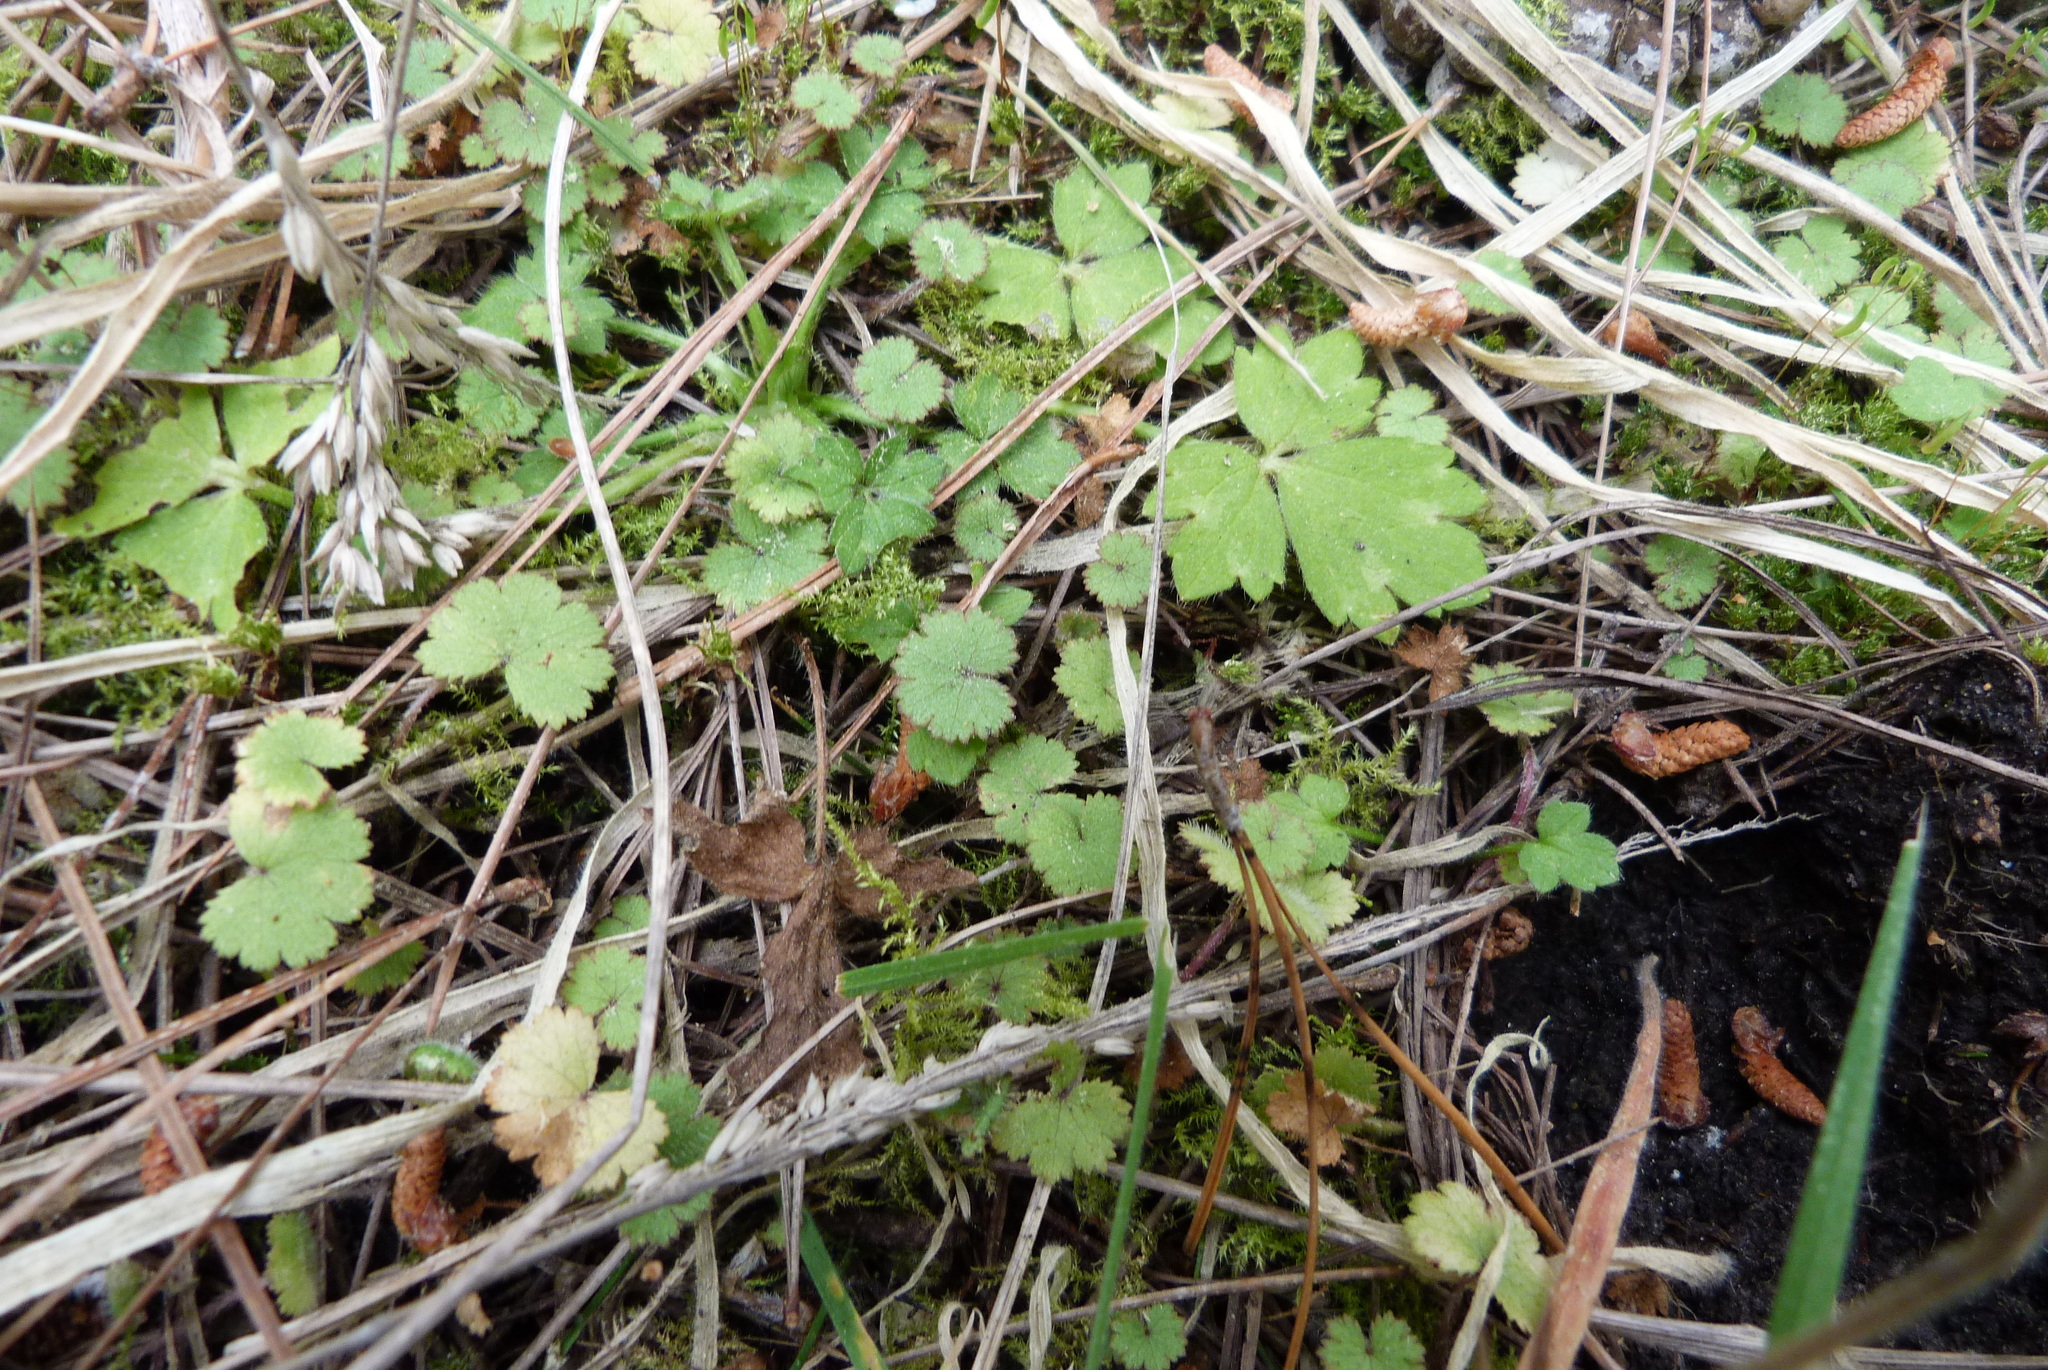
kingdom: Plantae
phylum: Tracheophyta
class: Magnoliopsida
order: Apiales
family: Araliaceae
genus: Hydrocotyle
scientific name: Hydrocotyle moschata
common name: Hairy pennywort
